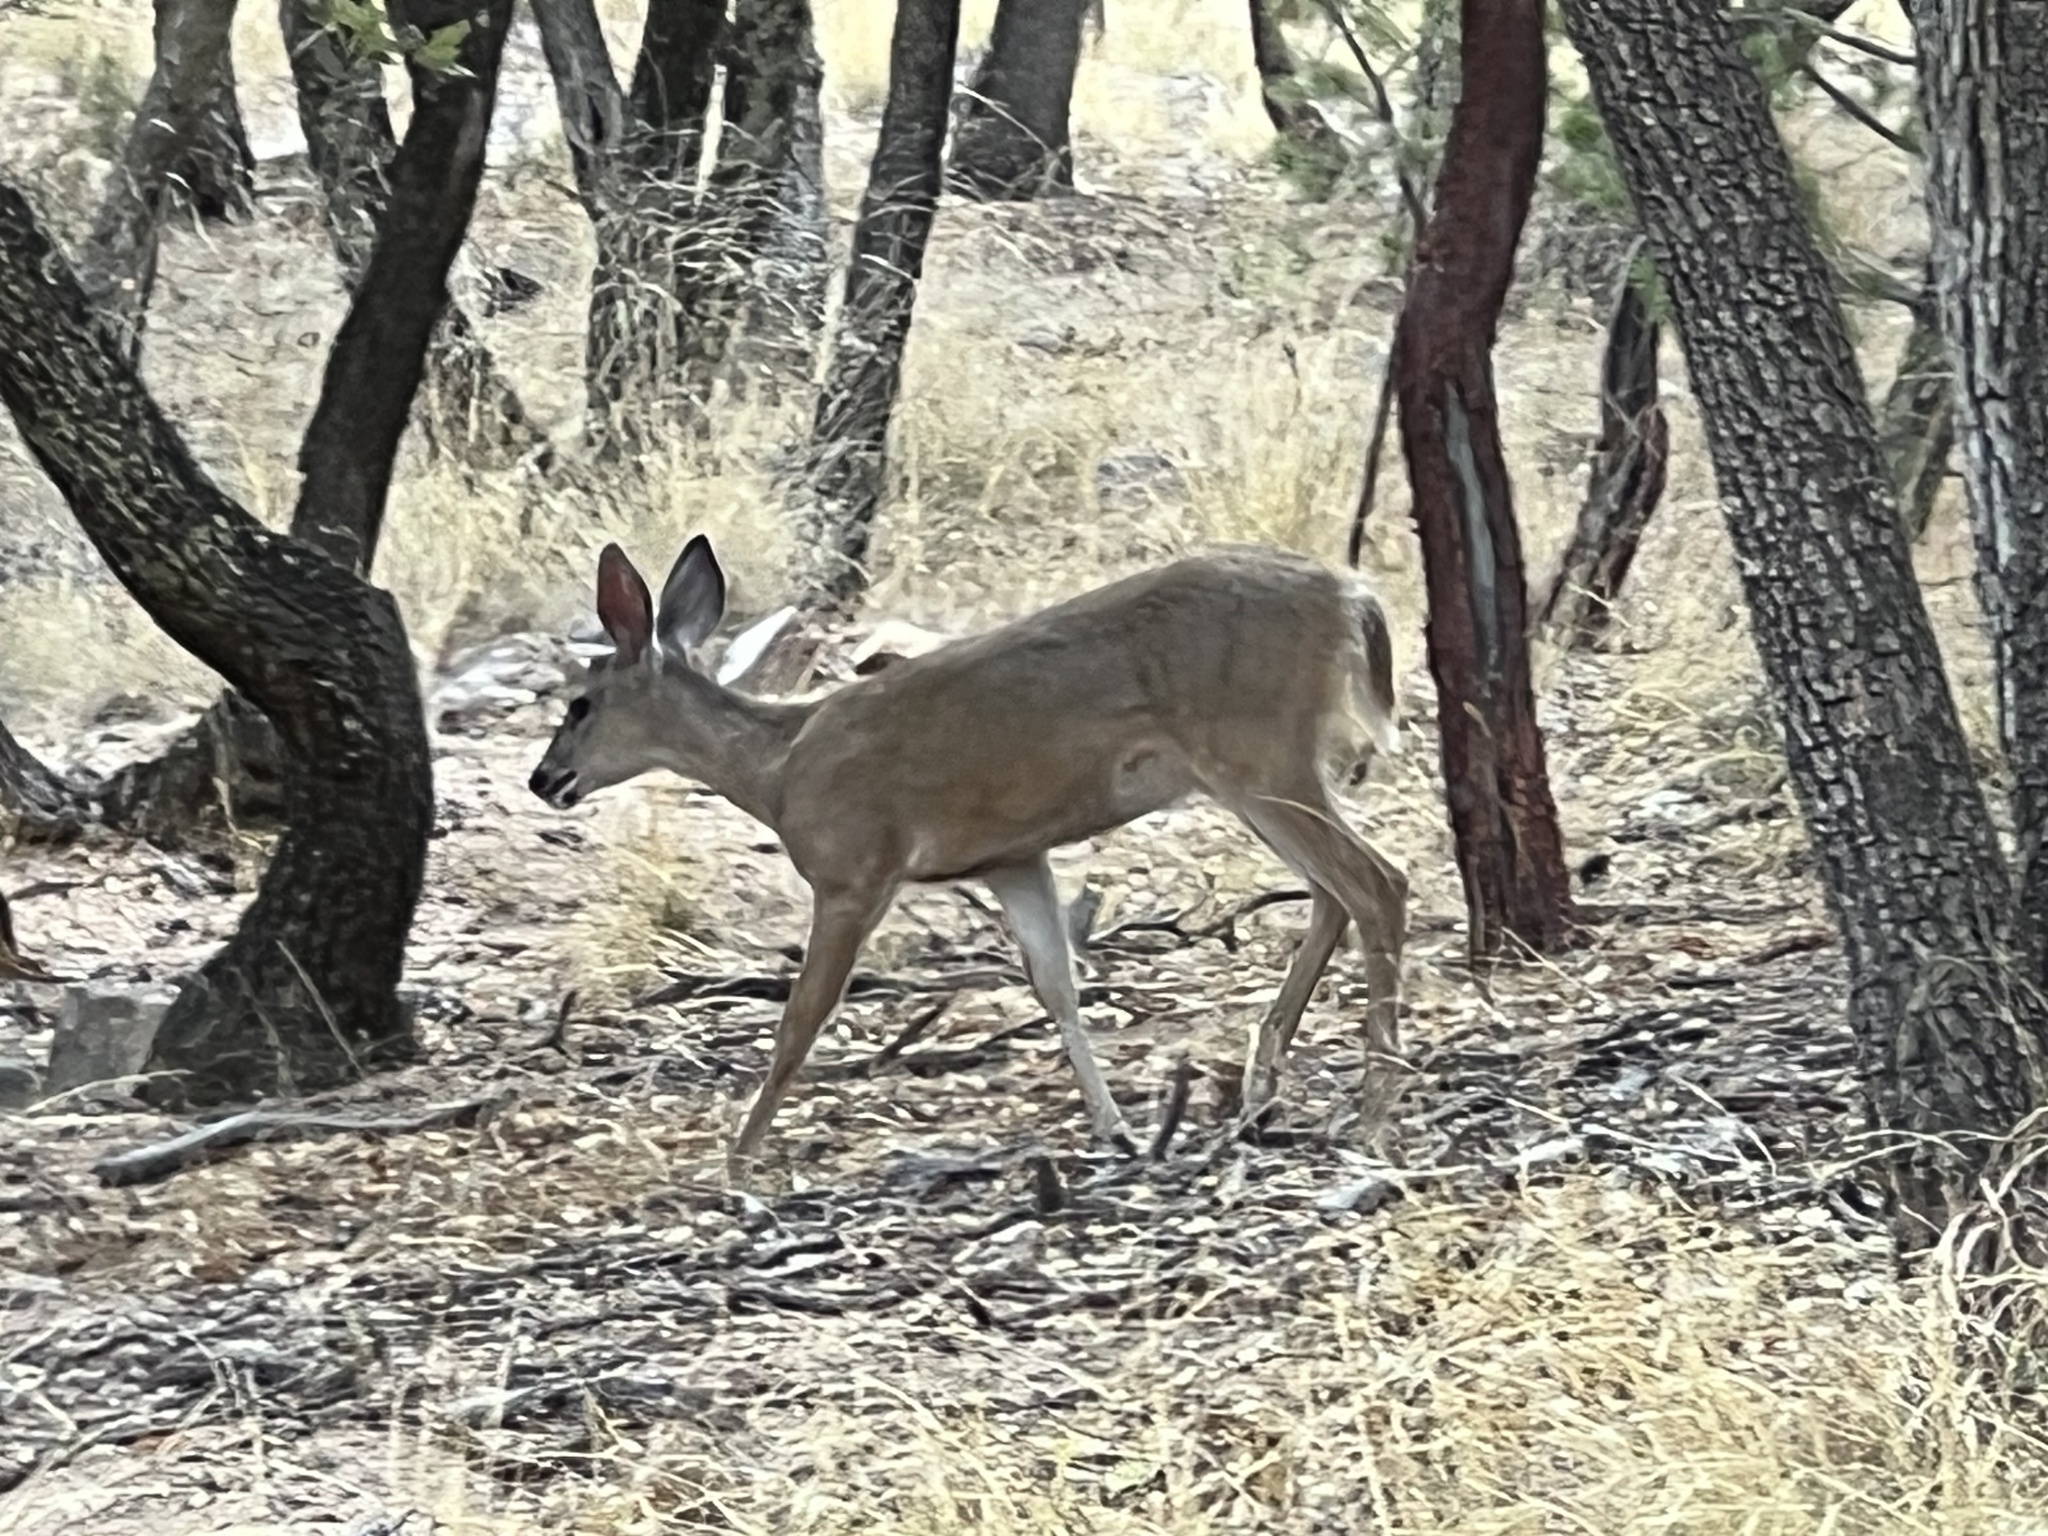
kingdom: Animalia
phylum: Chordata
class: Mammalia
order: Artiodactyla
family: Cervidae
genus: Odocoileus
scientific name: Odocoileus virginianus
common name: White-tailed deer
